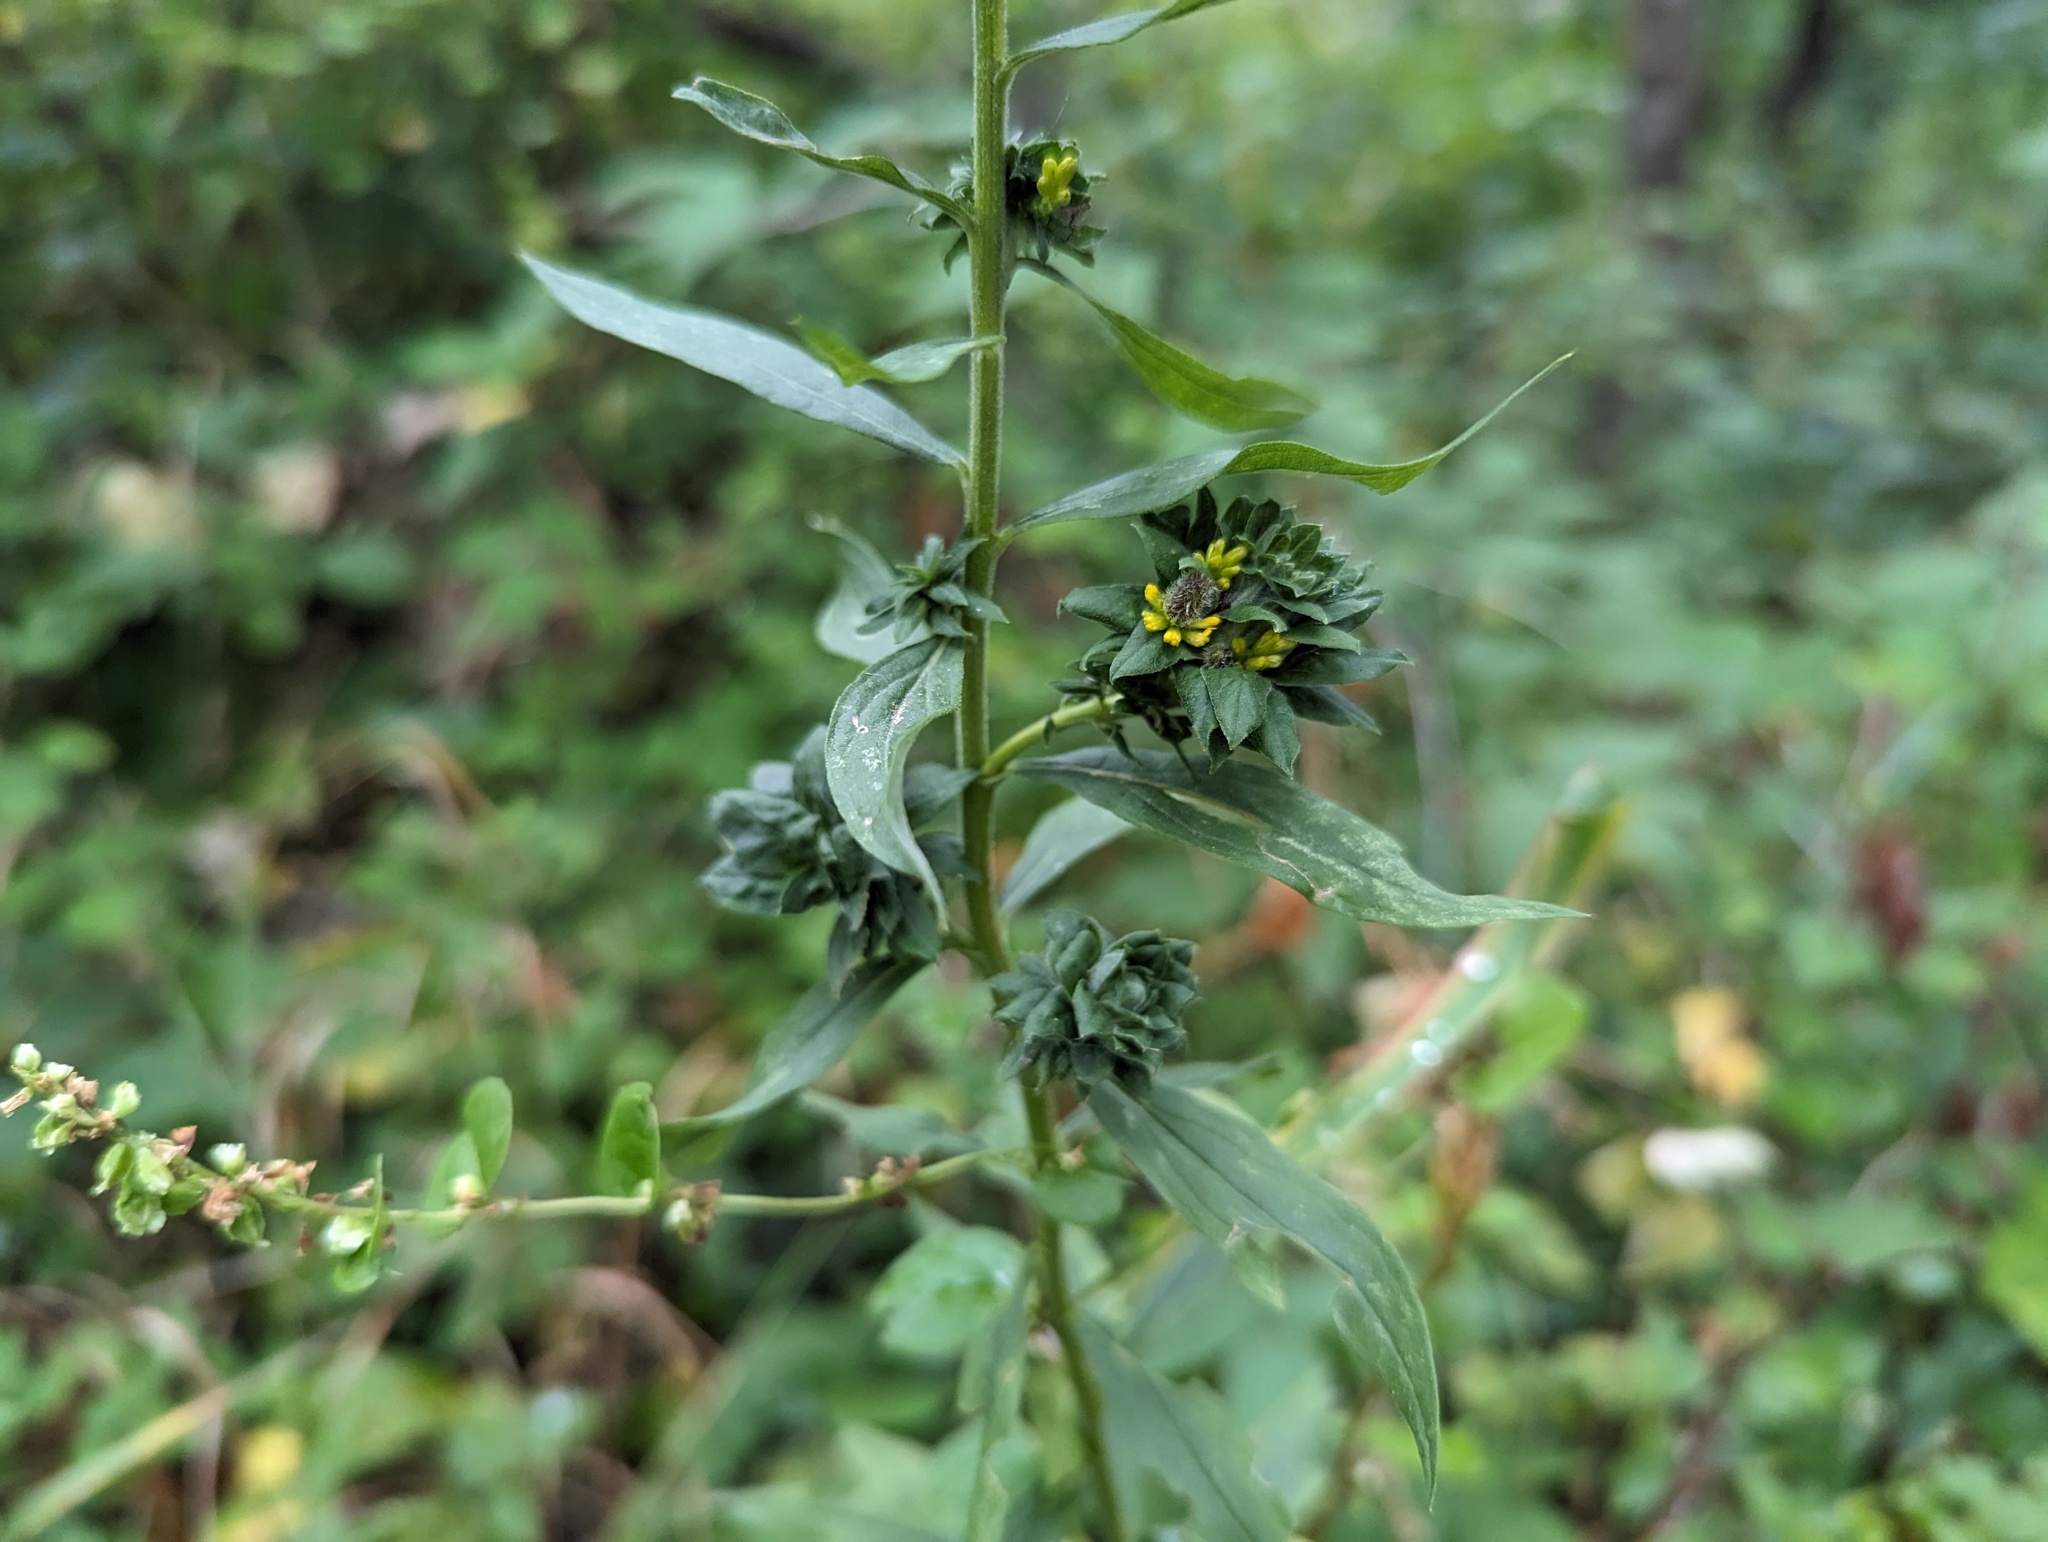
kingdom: Animalia
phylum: Arthropoda
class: Insecta
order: Diptera
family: Tephritidae
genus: Procecidochares
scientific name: Procecidochares atra
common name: Goldenrod brussels sprout gall fly
